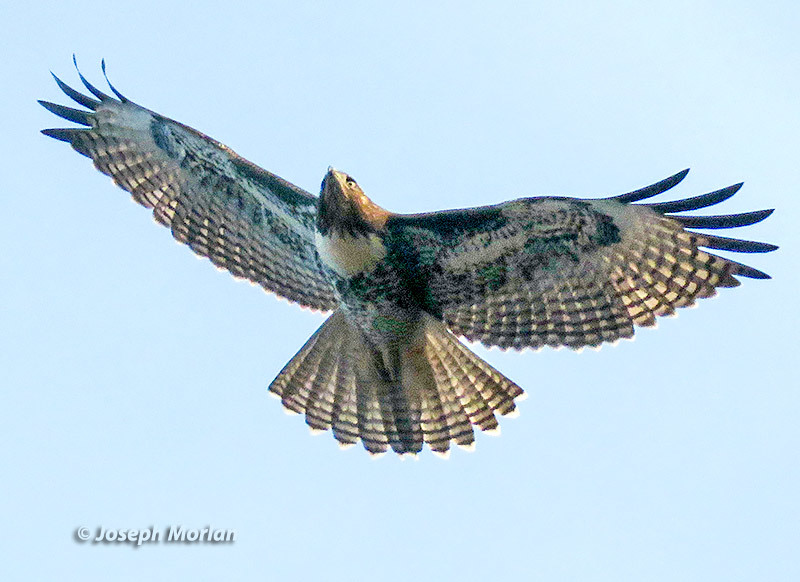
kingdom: Animalia
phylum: Chordata
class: Aves
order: Accipitriformes
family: Accipitridae
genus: Buteo
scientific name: Buteo jamaicensis
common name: Red-tailed hawk
